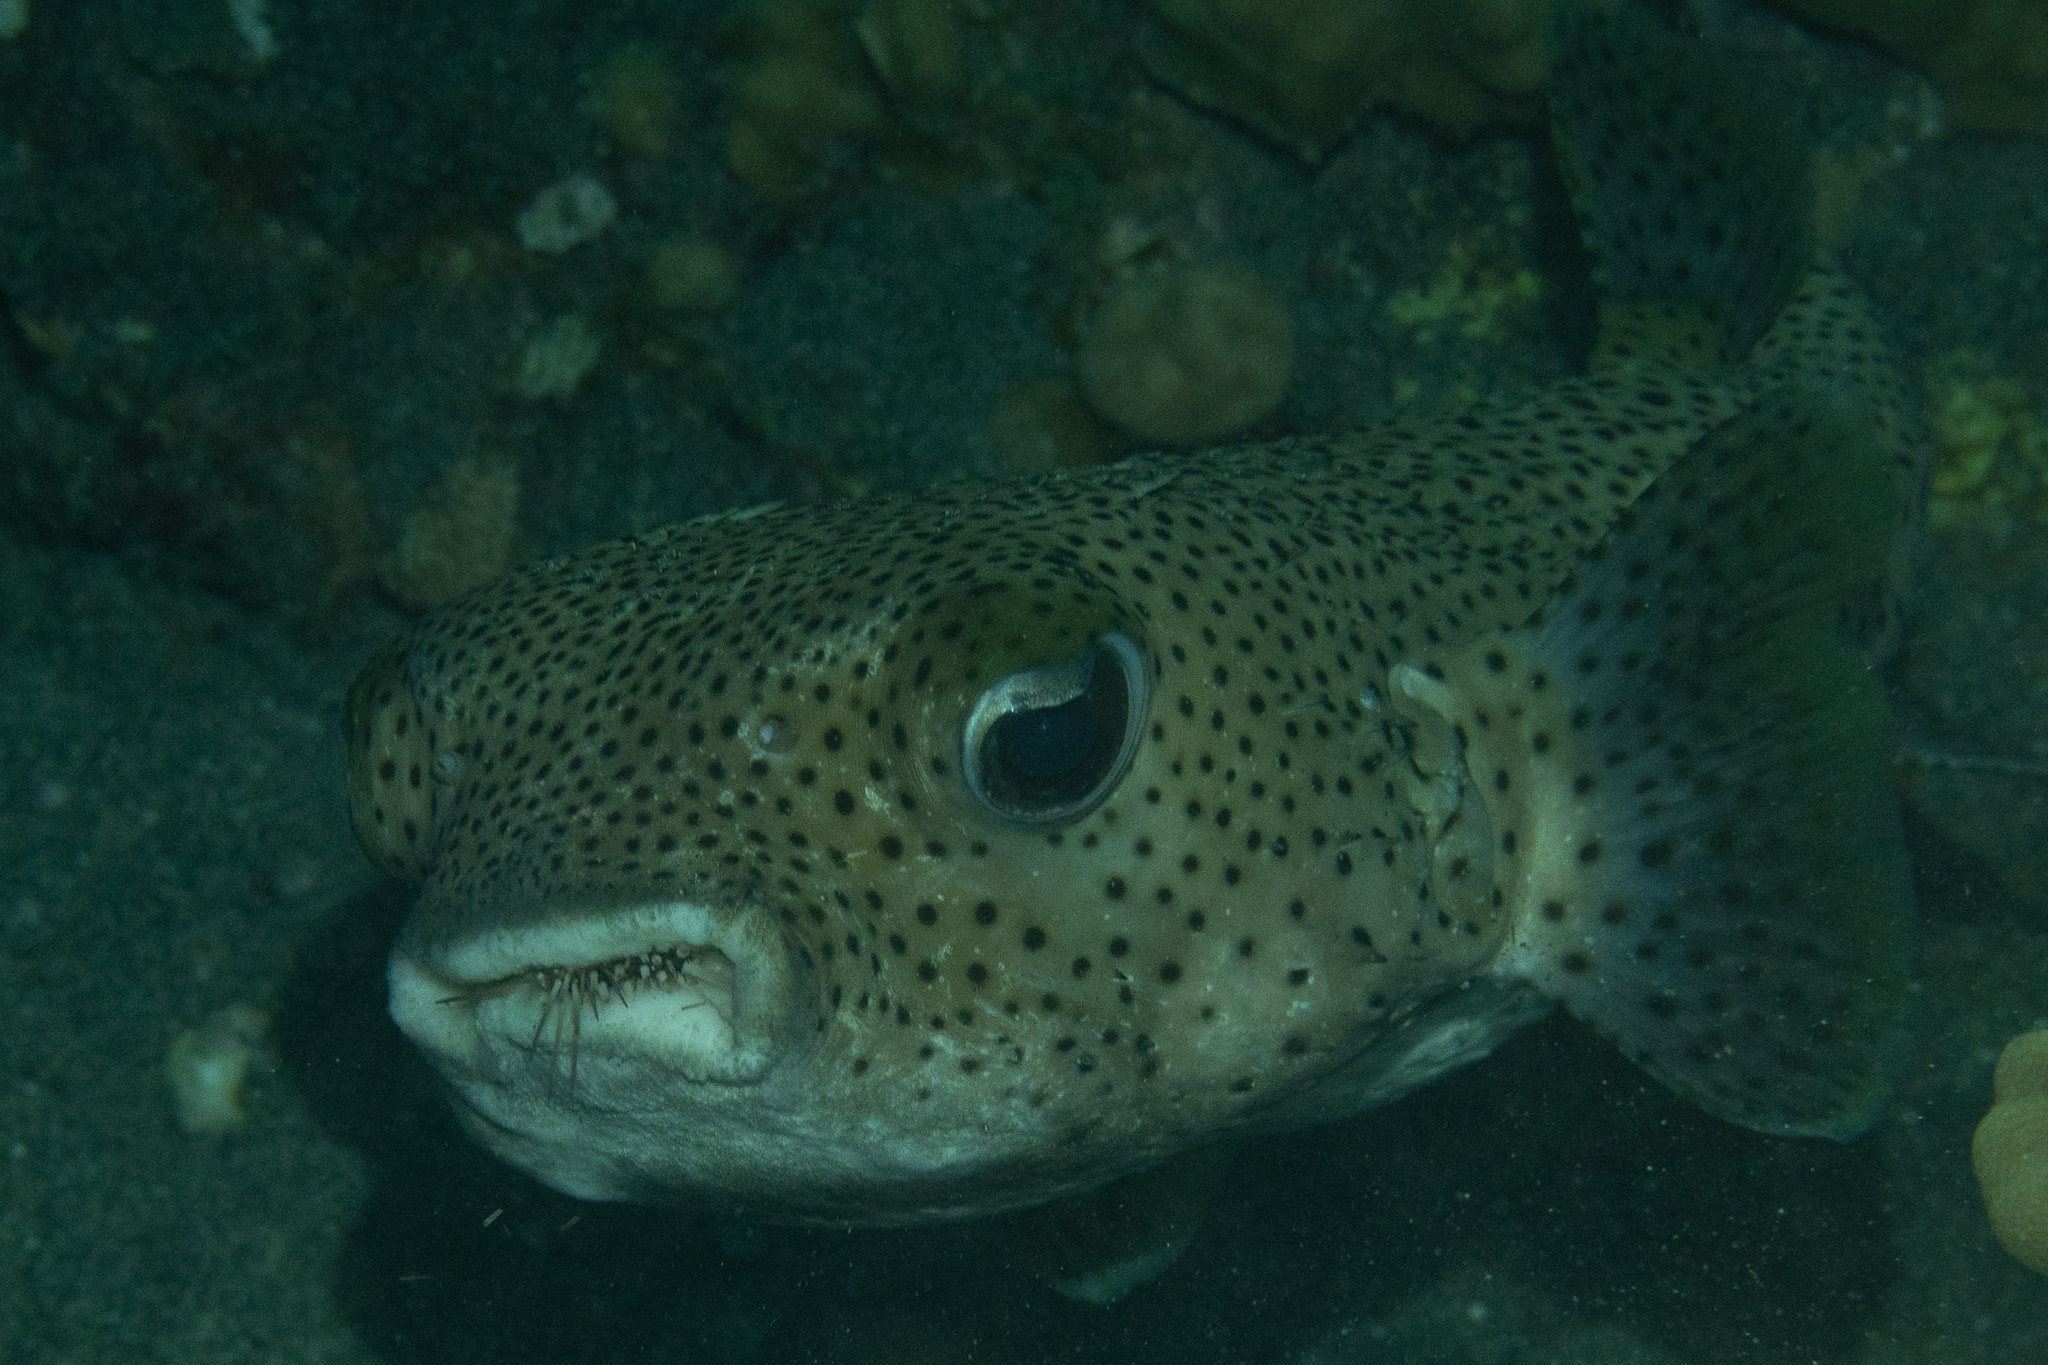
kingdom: Animalia
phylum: Chordata
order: Tetraodontiformes
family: Diodontidae
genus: Diodon
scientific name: Diodon hystrix
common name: Giant porcupinefish
